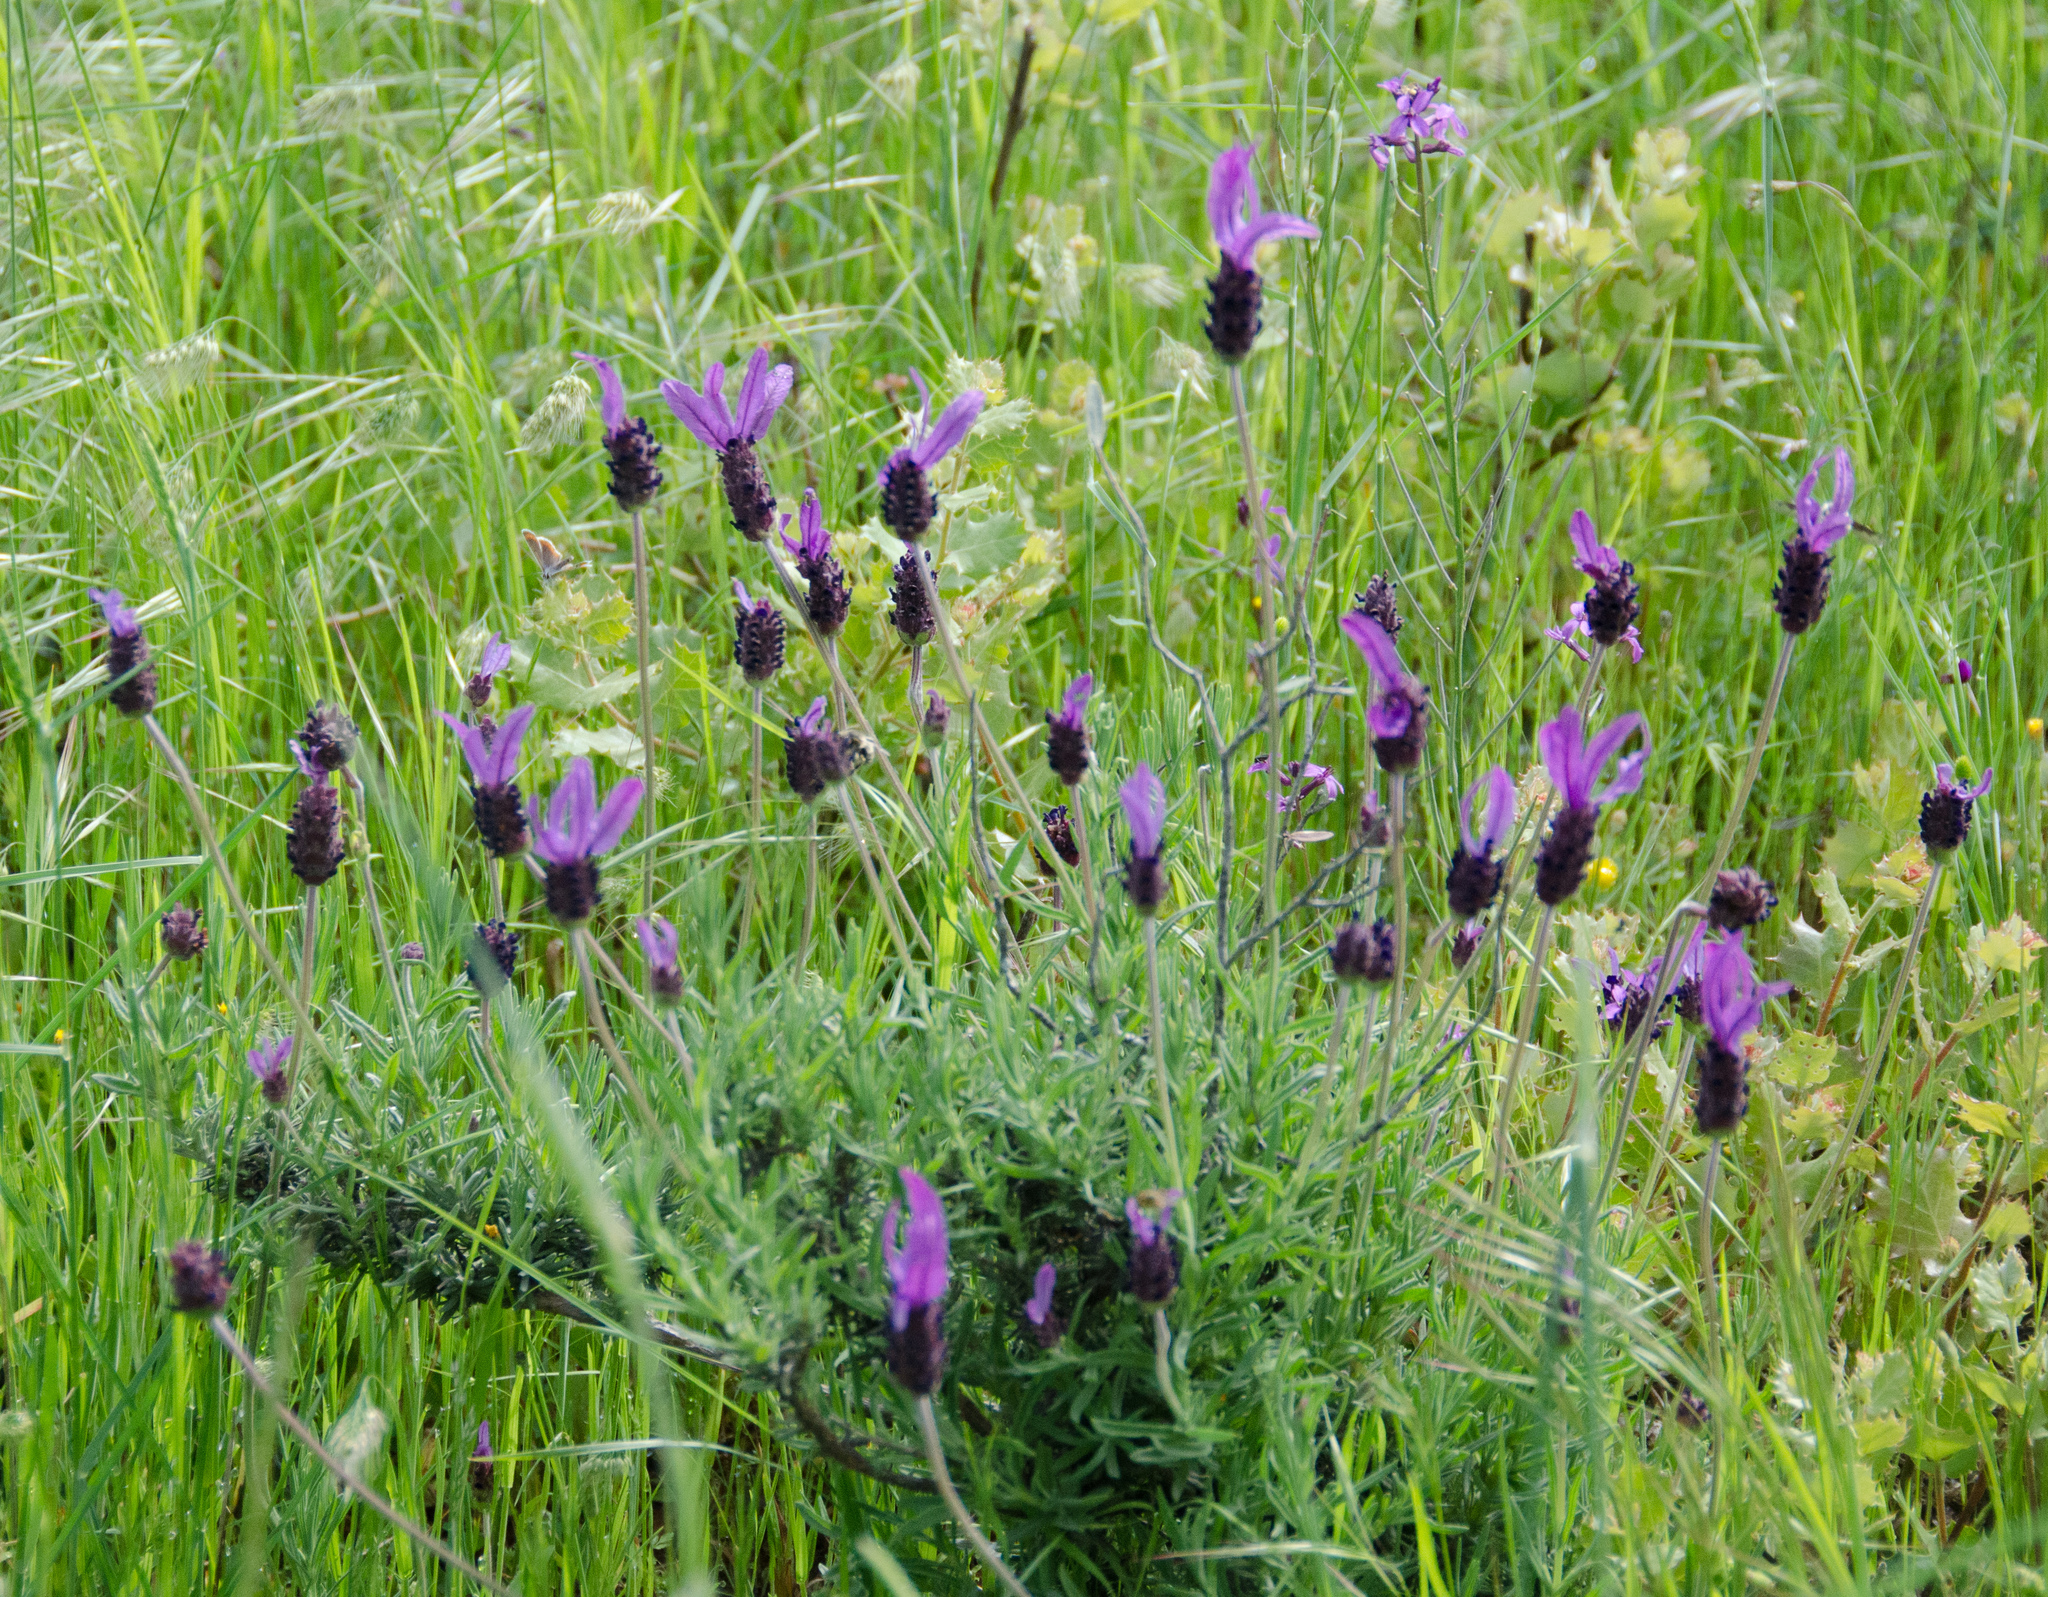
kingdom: Plantae
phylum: Tracheophyta
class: Magnoliopsida
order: Lamiales
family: Lamiaceae
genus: Lavandula
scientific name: Lavandula pedunculata
